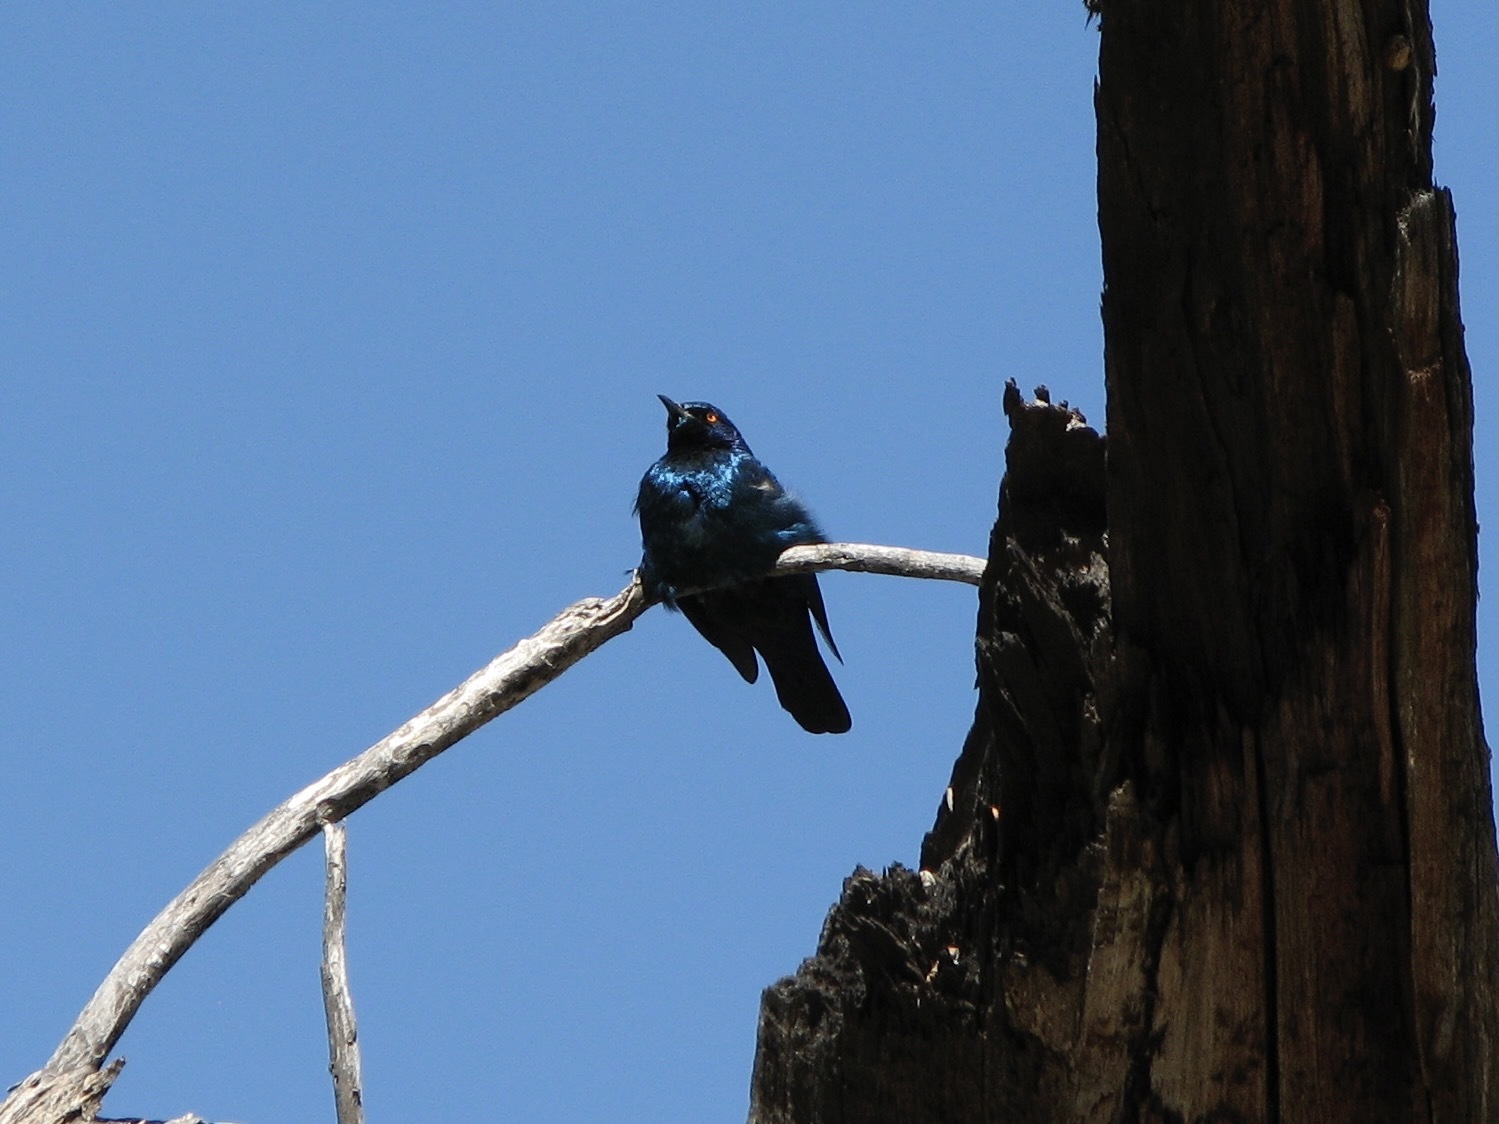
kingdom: Animalia
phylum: Chordata
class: Aves
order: Passeriformes
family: Sturnidae
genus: Lamprotornis
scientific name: Lamprotornis nitens
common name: Cape starling
